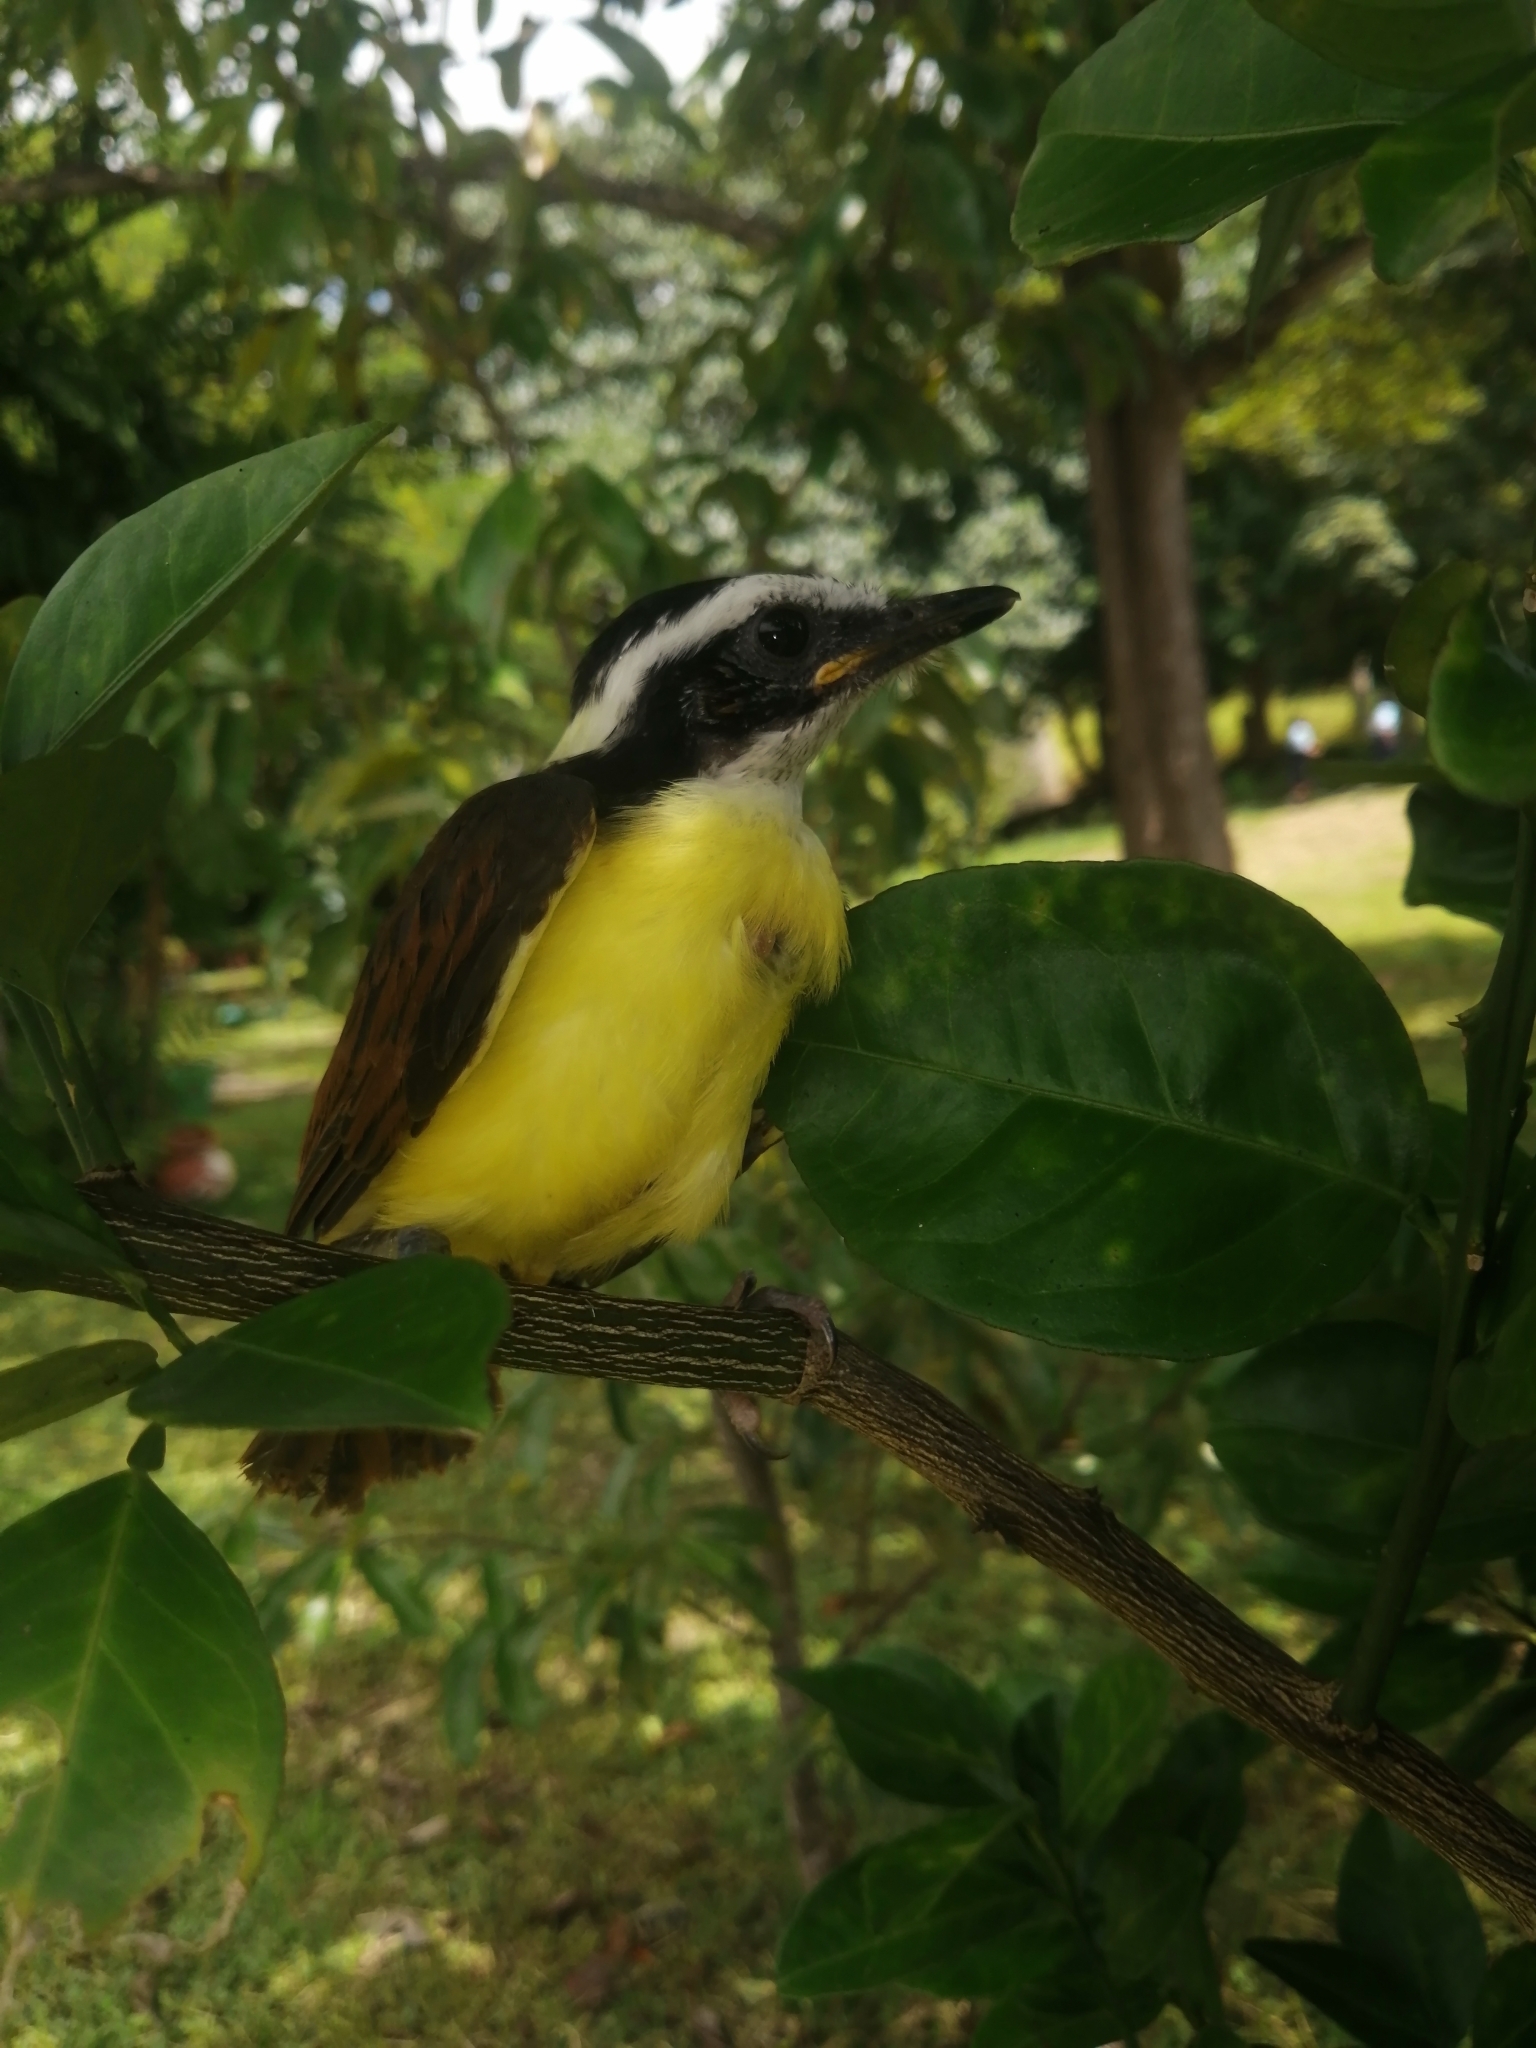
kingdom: Animalia
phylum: Chordata
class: Aves
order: Passeriformes
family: Tyrannidae
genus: Pitangus
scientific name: Pitangus sulphuratus
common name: Great kiskadee
